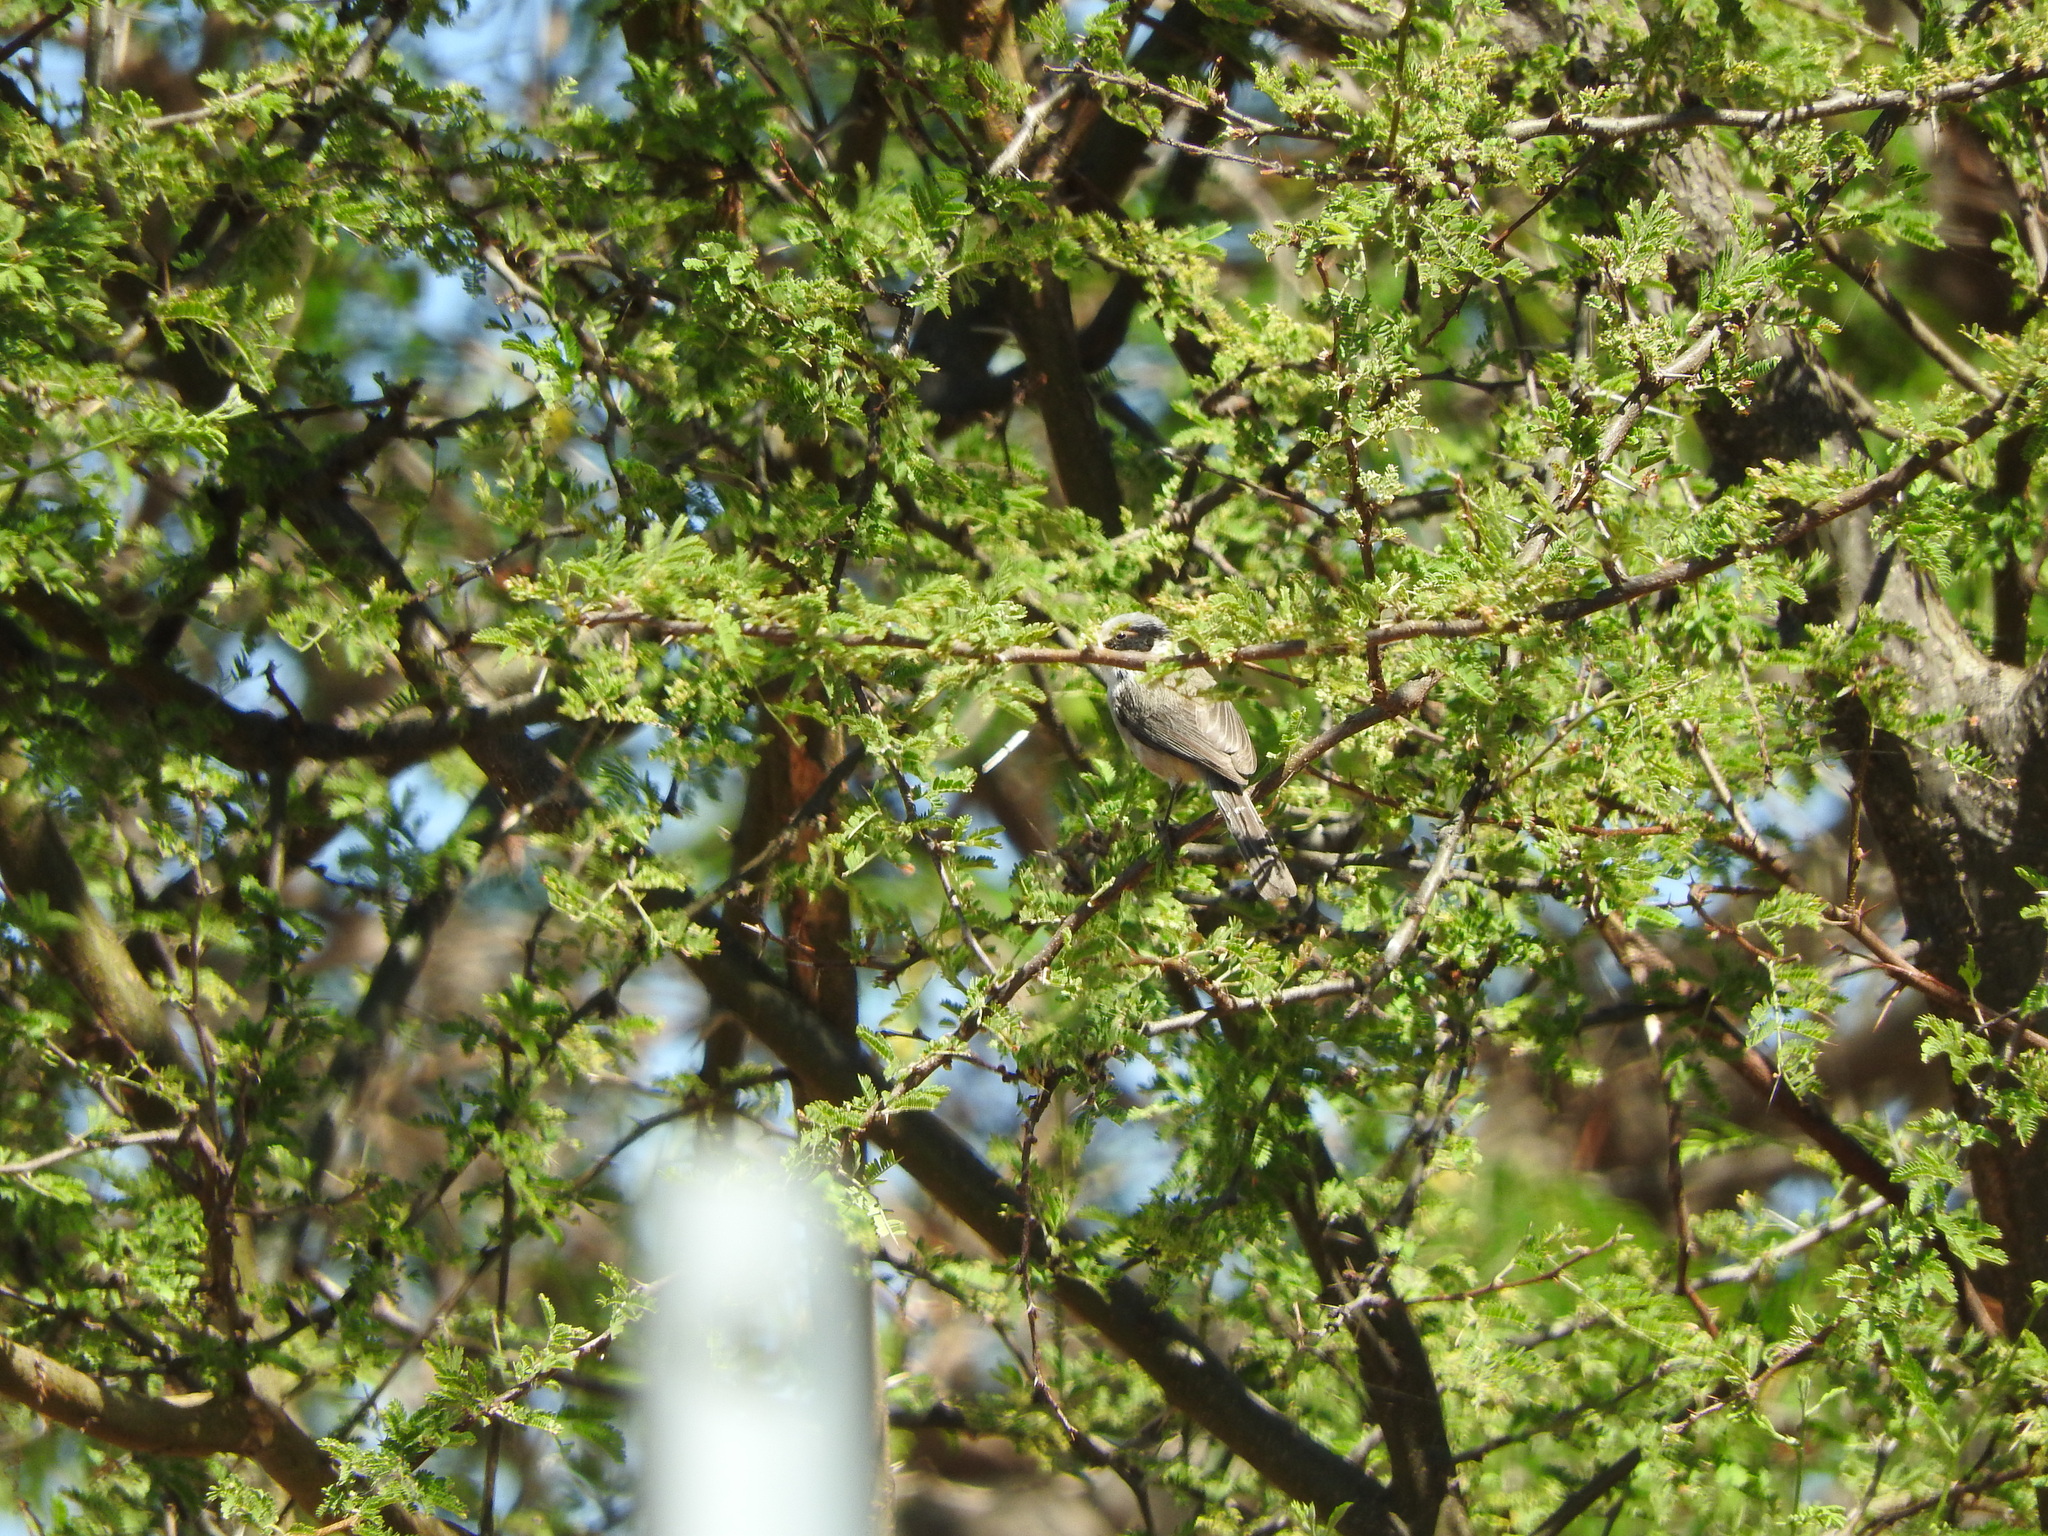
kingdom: Plantae
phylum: Tracheophyta
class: Magnoliopsida
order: Fabales
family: Fabaceae
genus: Vachellia
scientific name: Vachellia schaffneri
